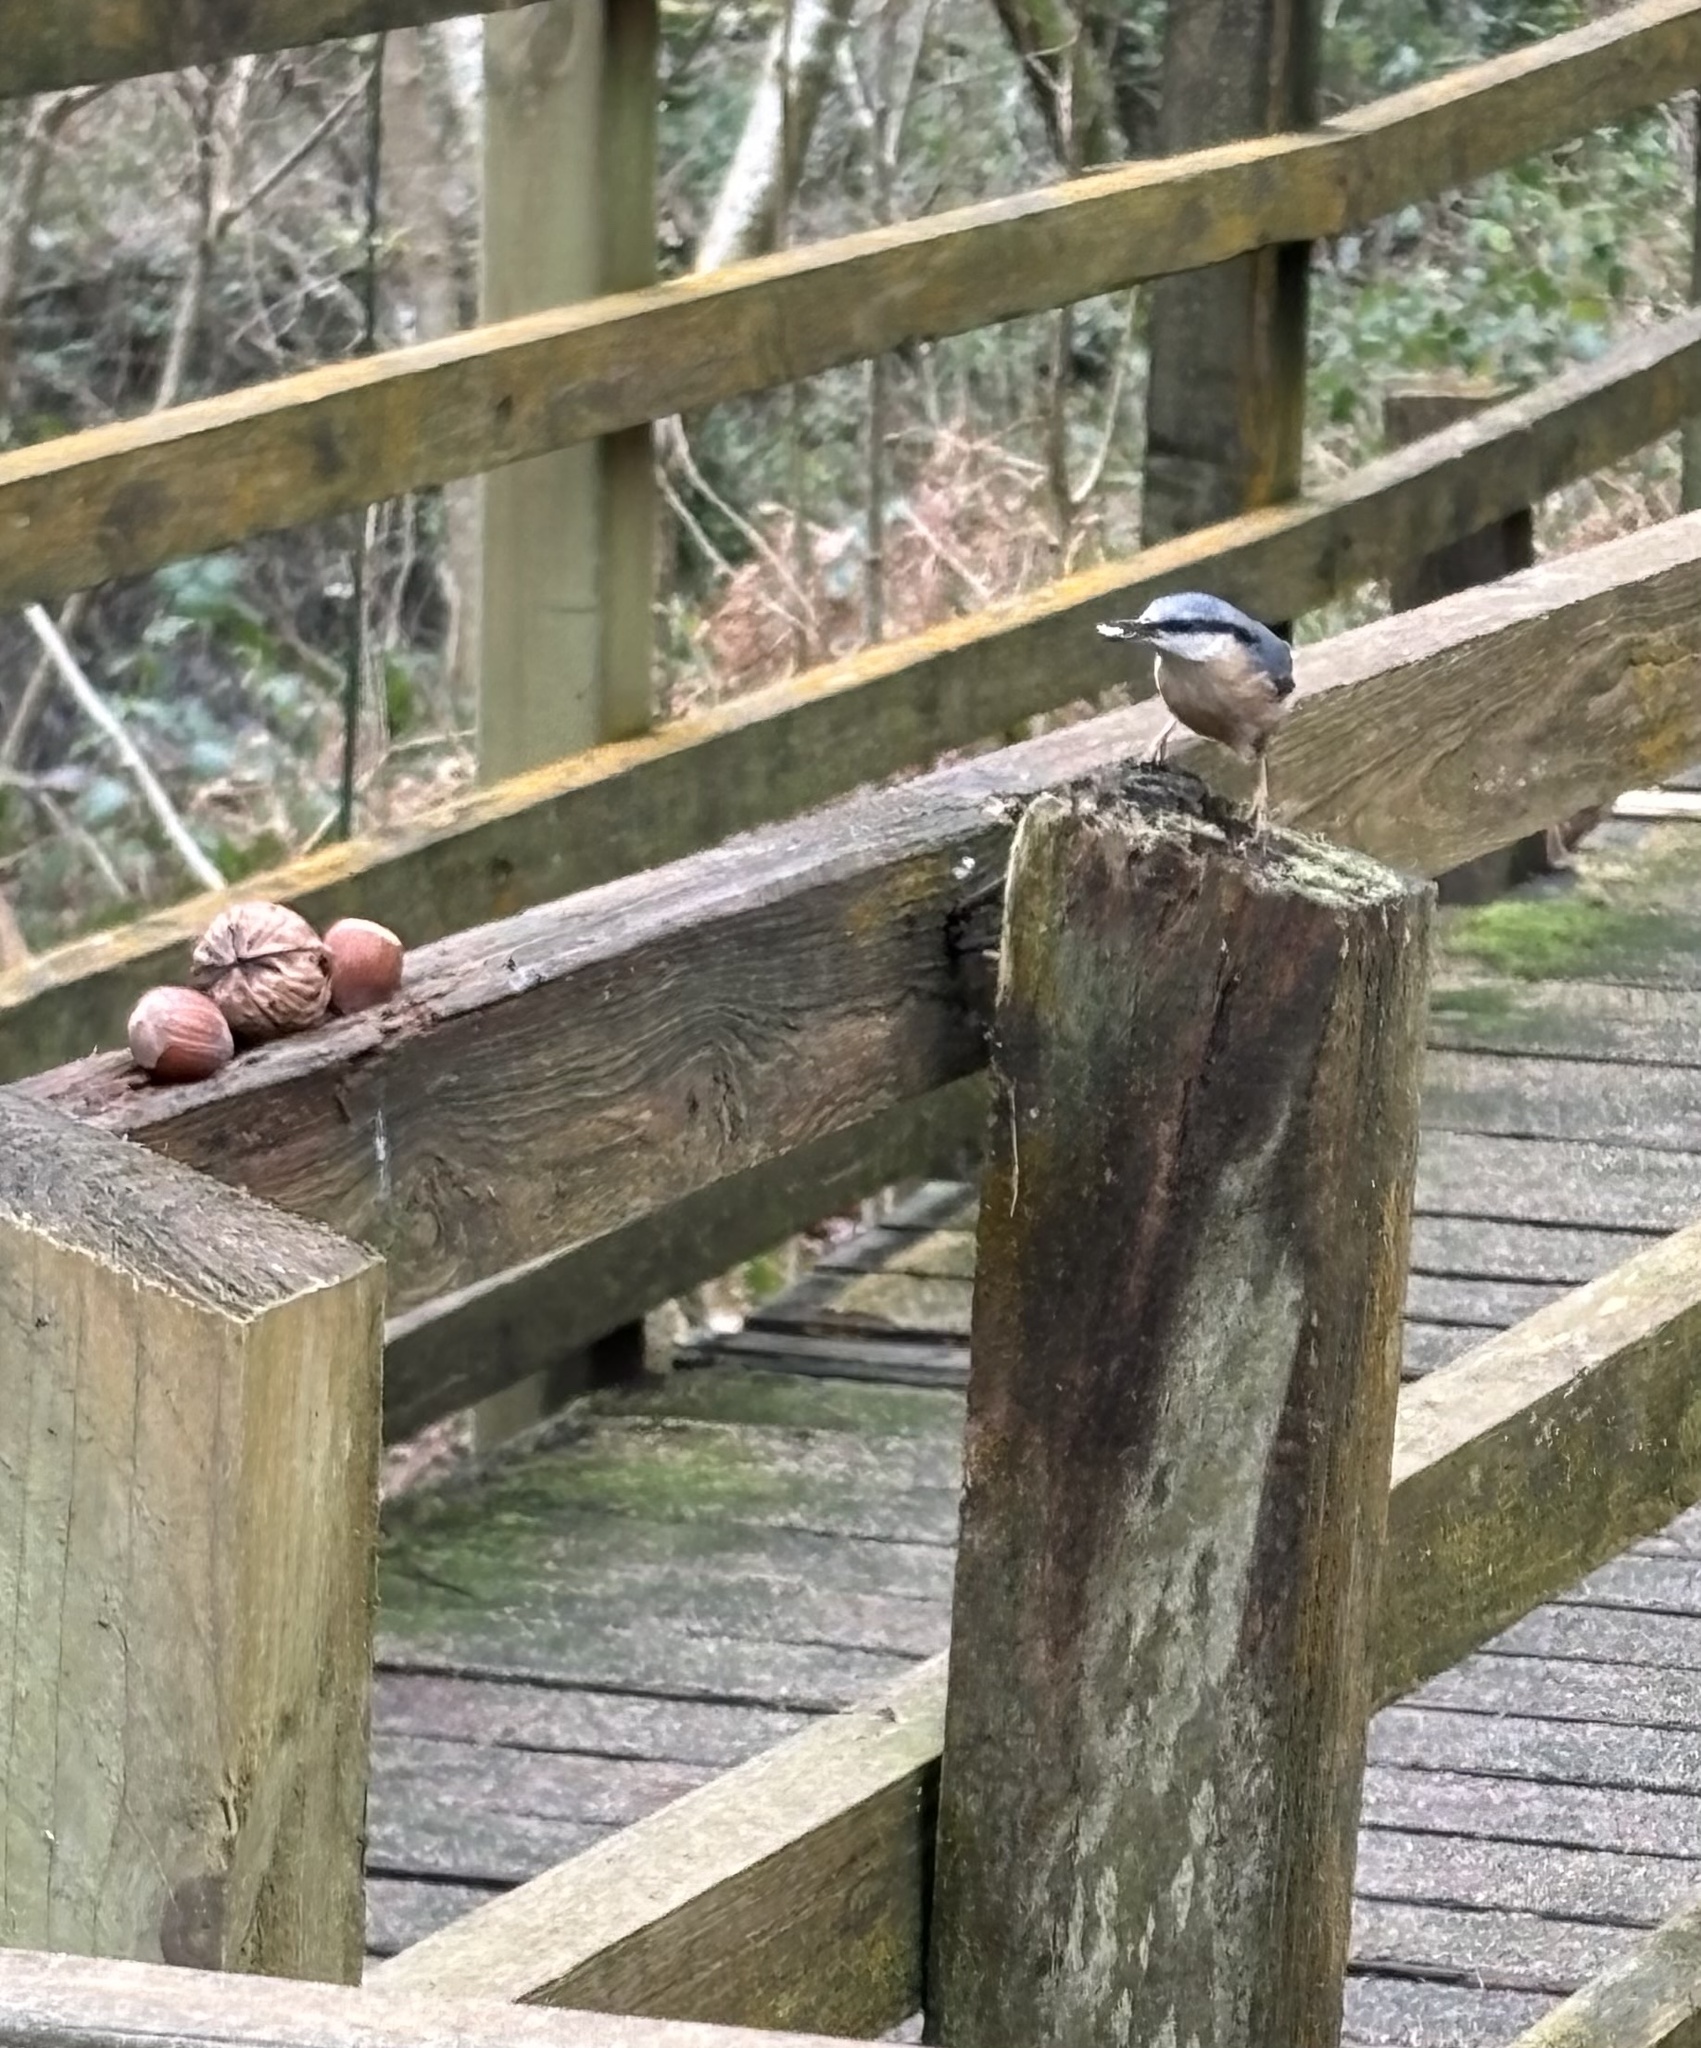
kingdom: Animalia
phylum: Chordata
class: Aves
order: Passeriformes
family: Sittidae
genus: Sitta
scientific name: Sitta europaea
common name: Eurasian nuthatch
